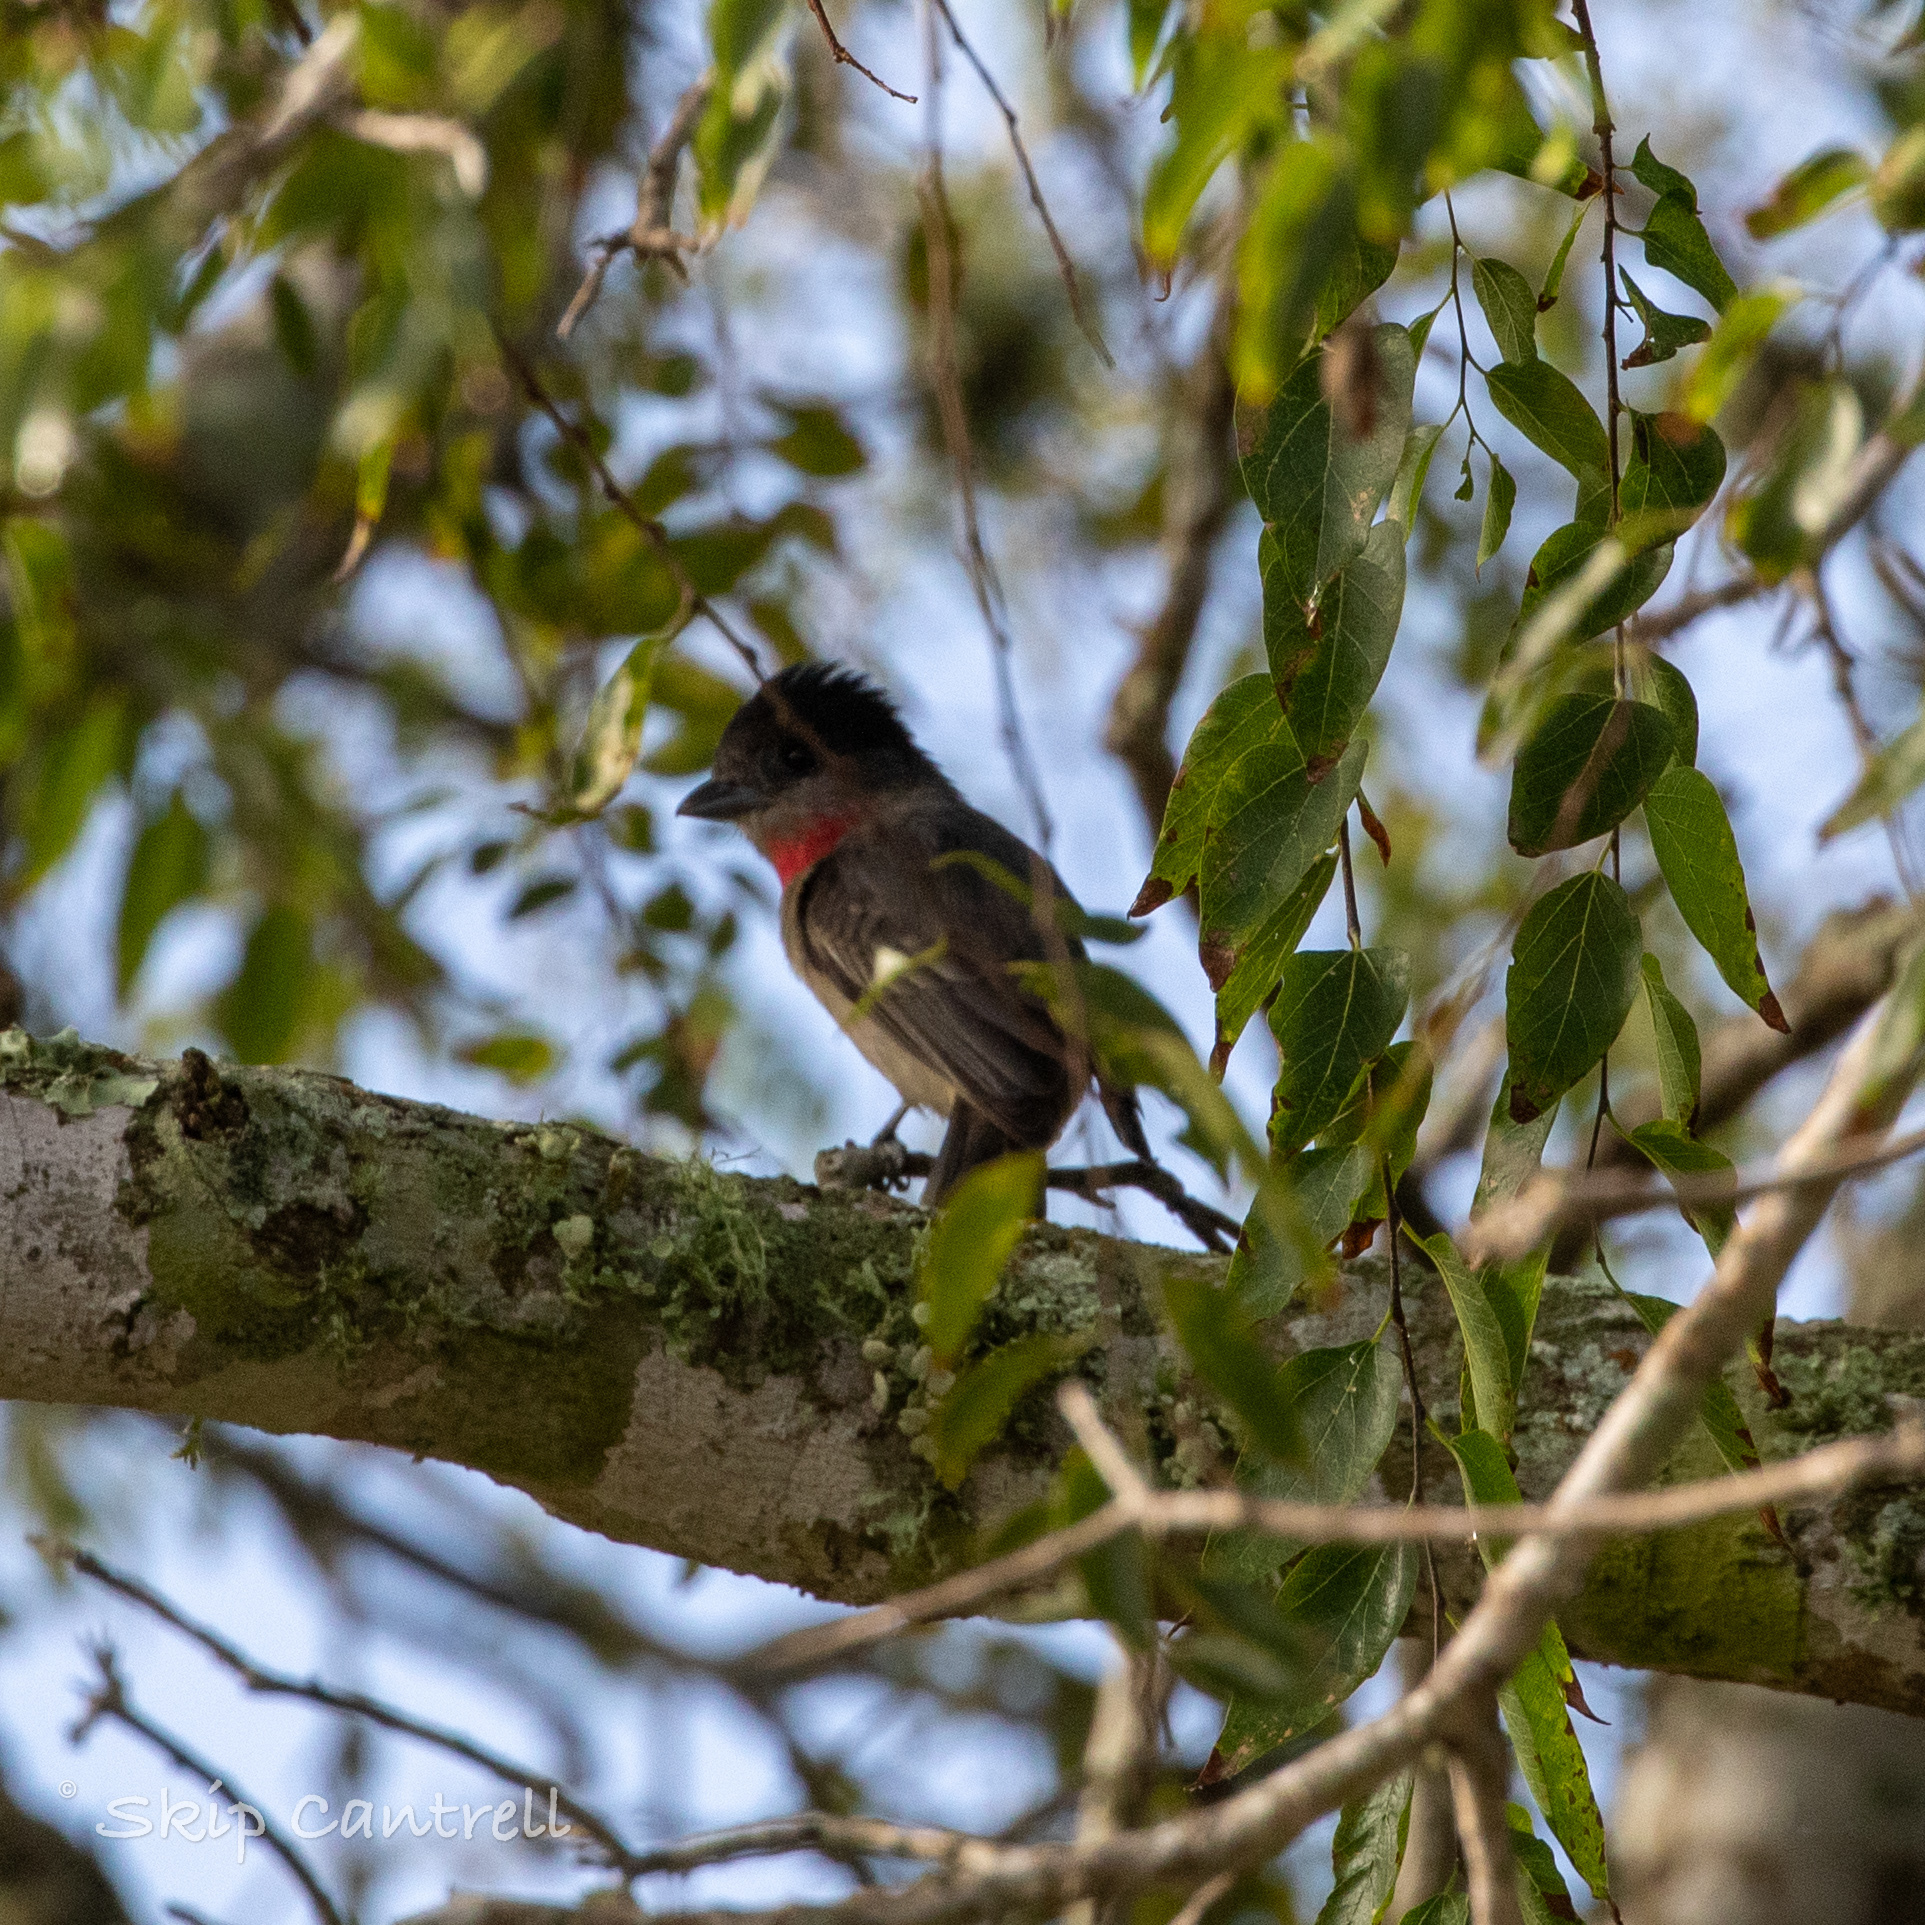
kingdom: Animalia
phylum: Chordata
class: Aves
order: Passeriformes
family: Cotingidae
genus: Pachyramphus
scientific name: Pachyramphus aglaiae
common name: Rose-throated becard
